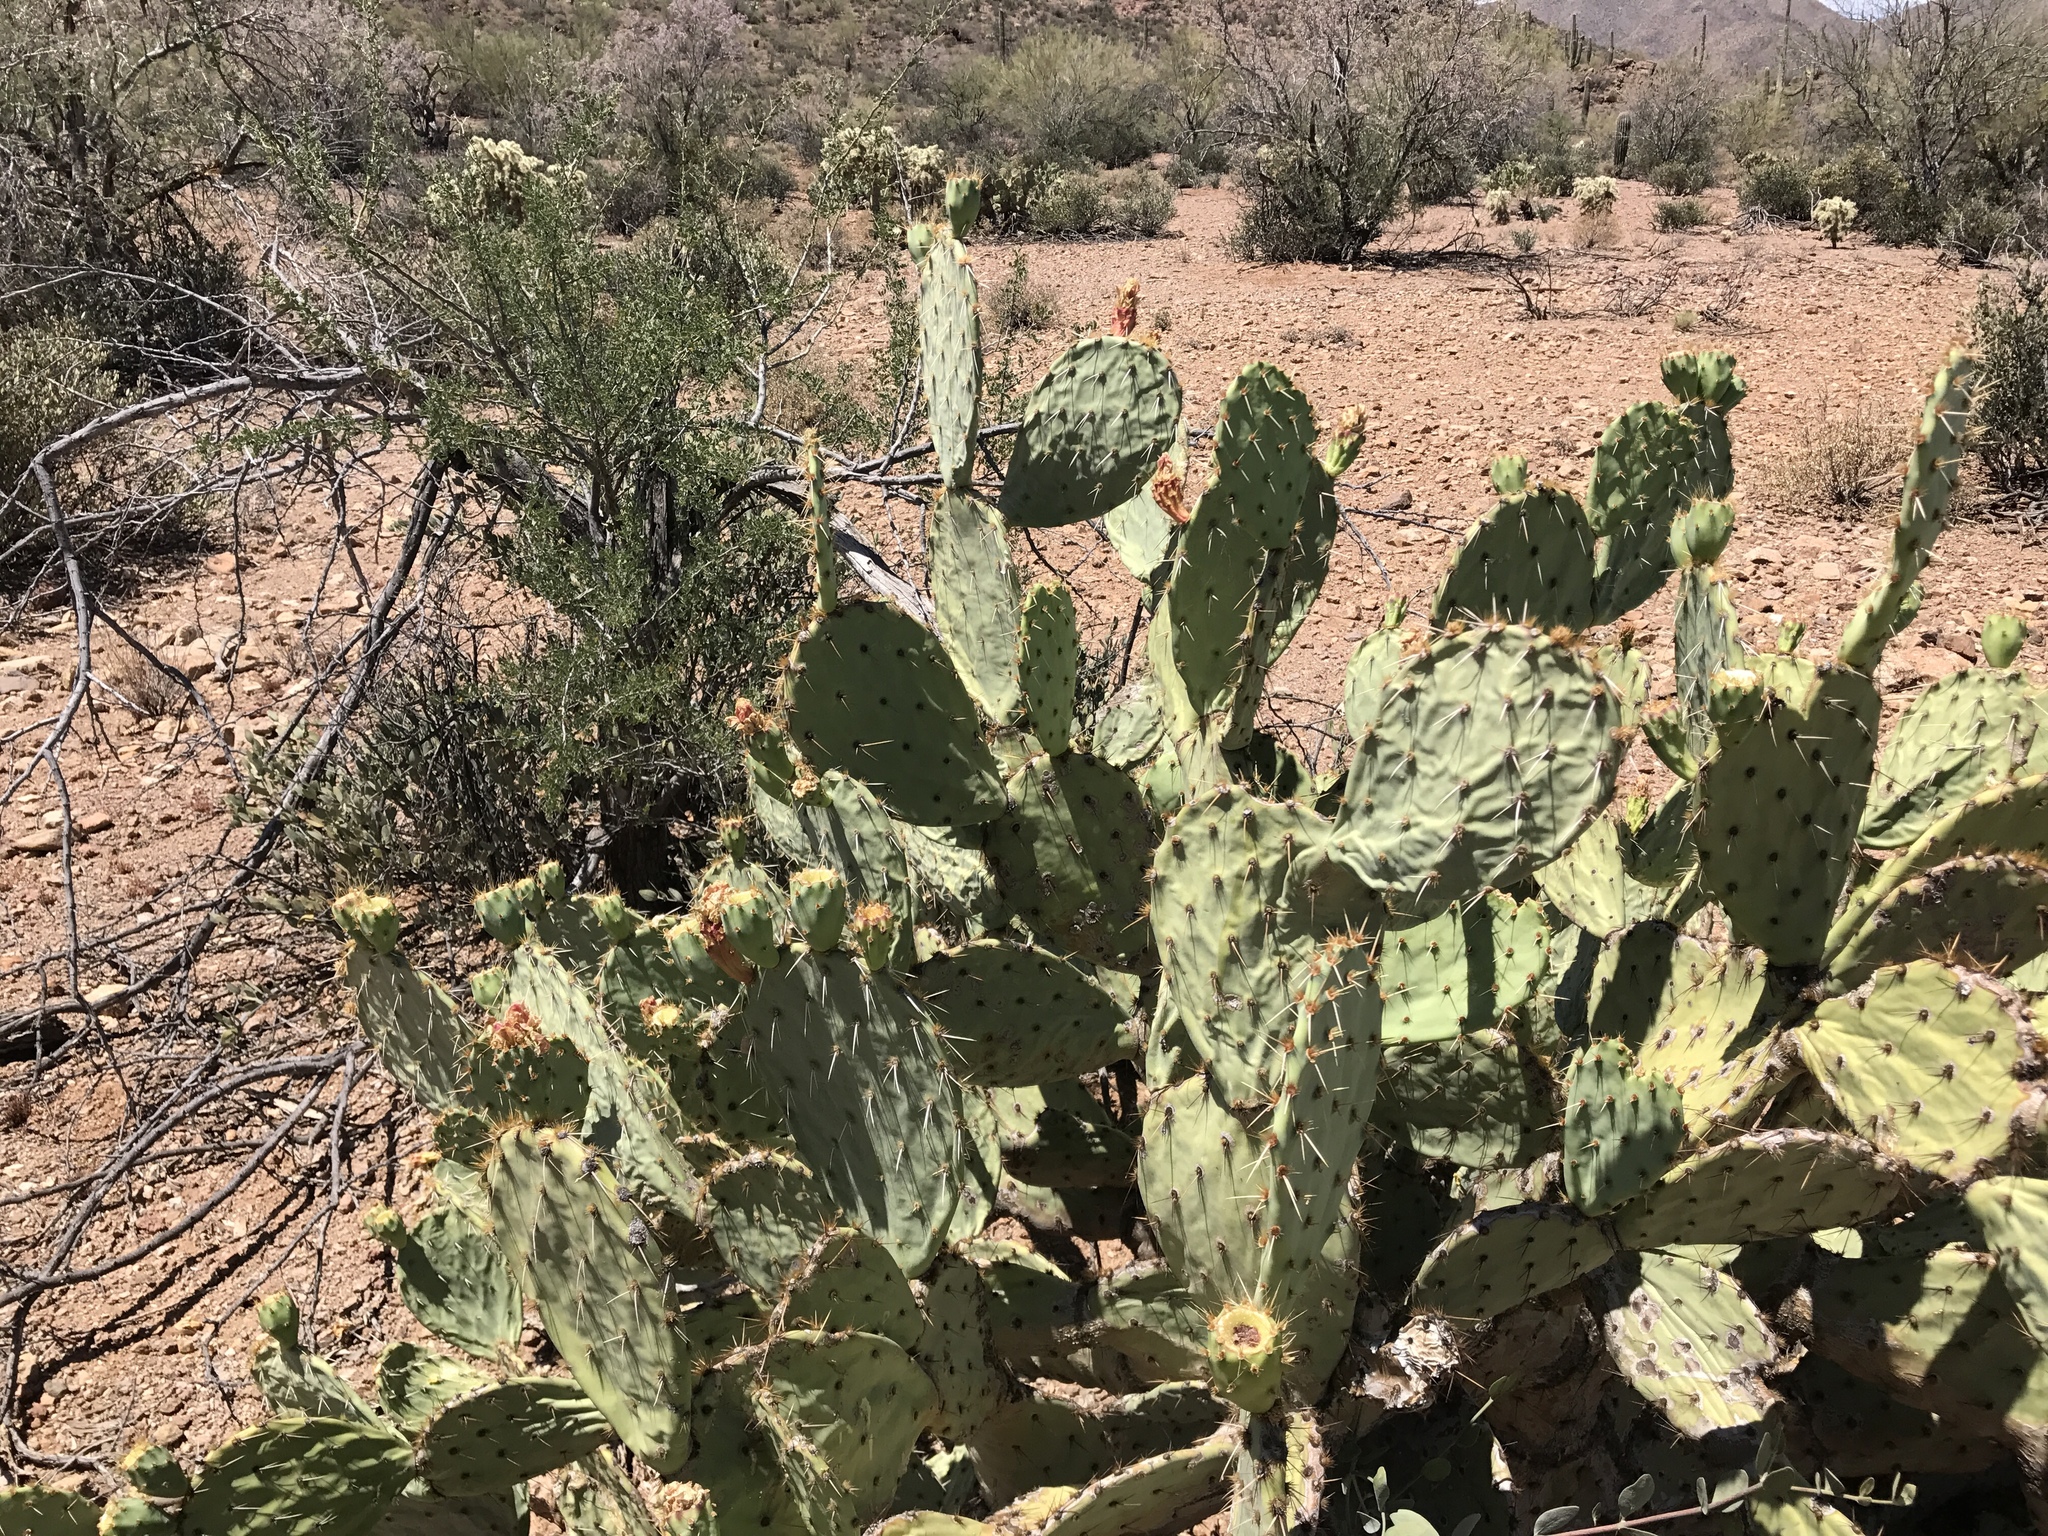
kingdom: Plantae
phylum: Tracheophyta
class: Magnoliopsida
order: Caryophyllales
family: Cactaceae
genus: Opuntia
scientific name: Opuntia engelmannii
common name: Cactus-apple
